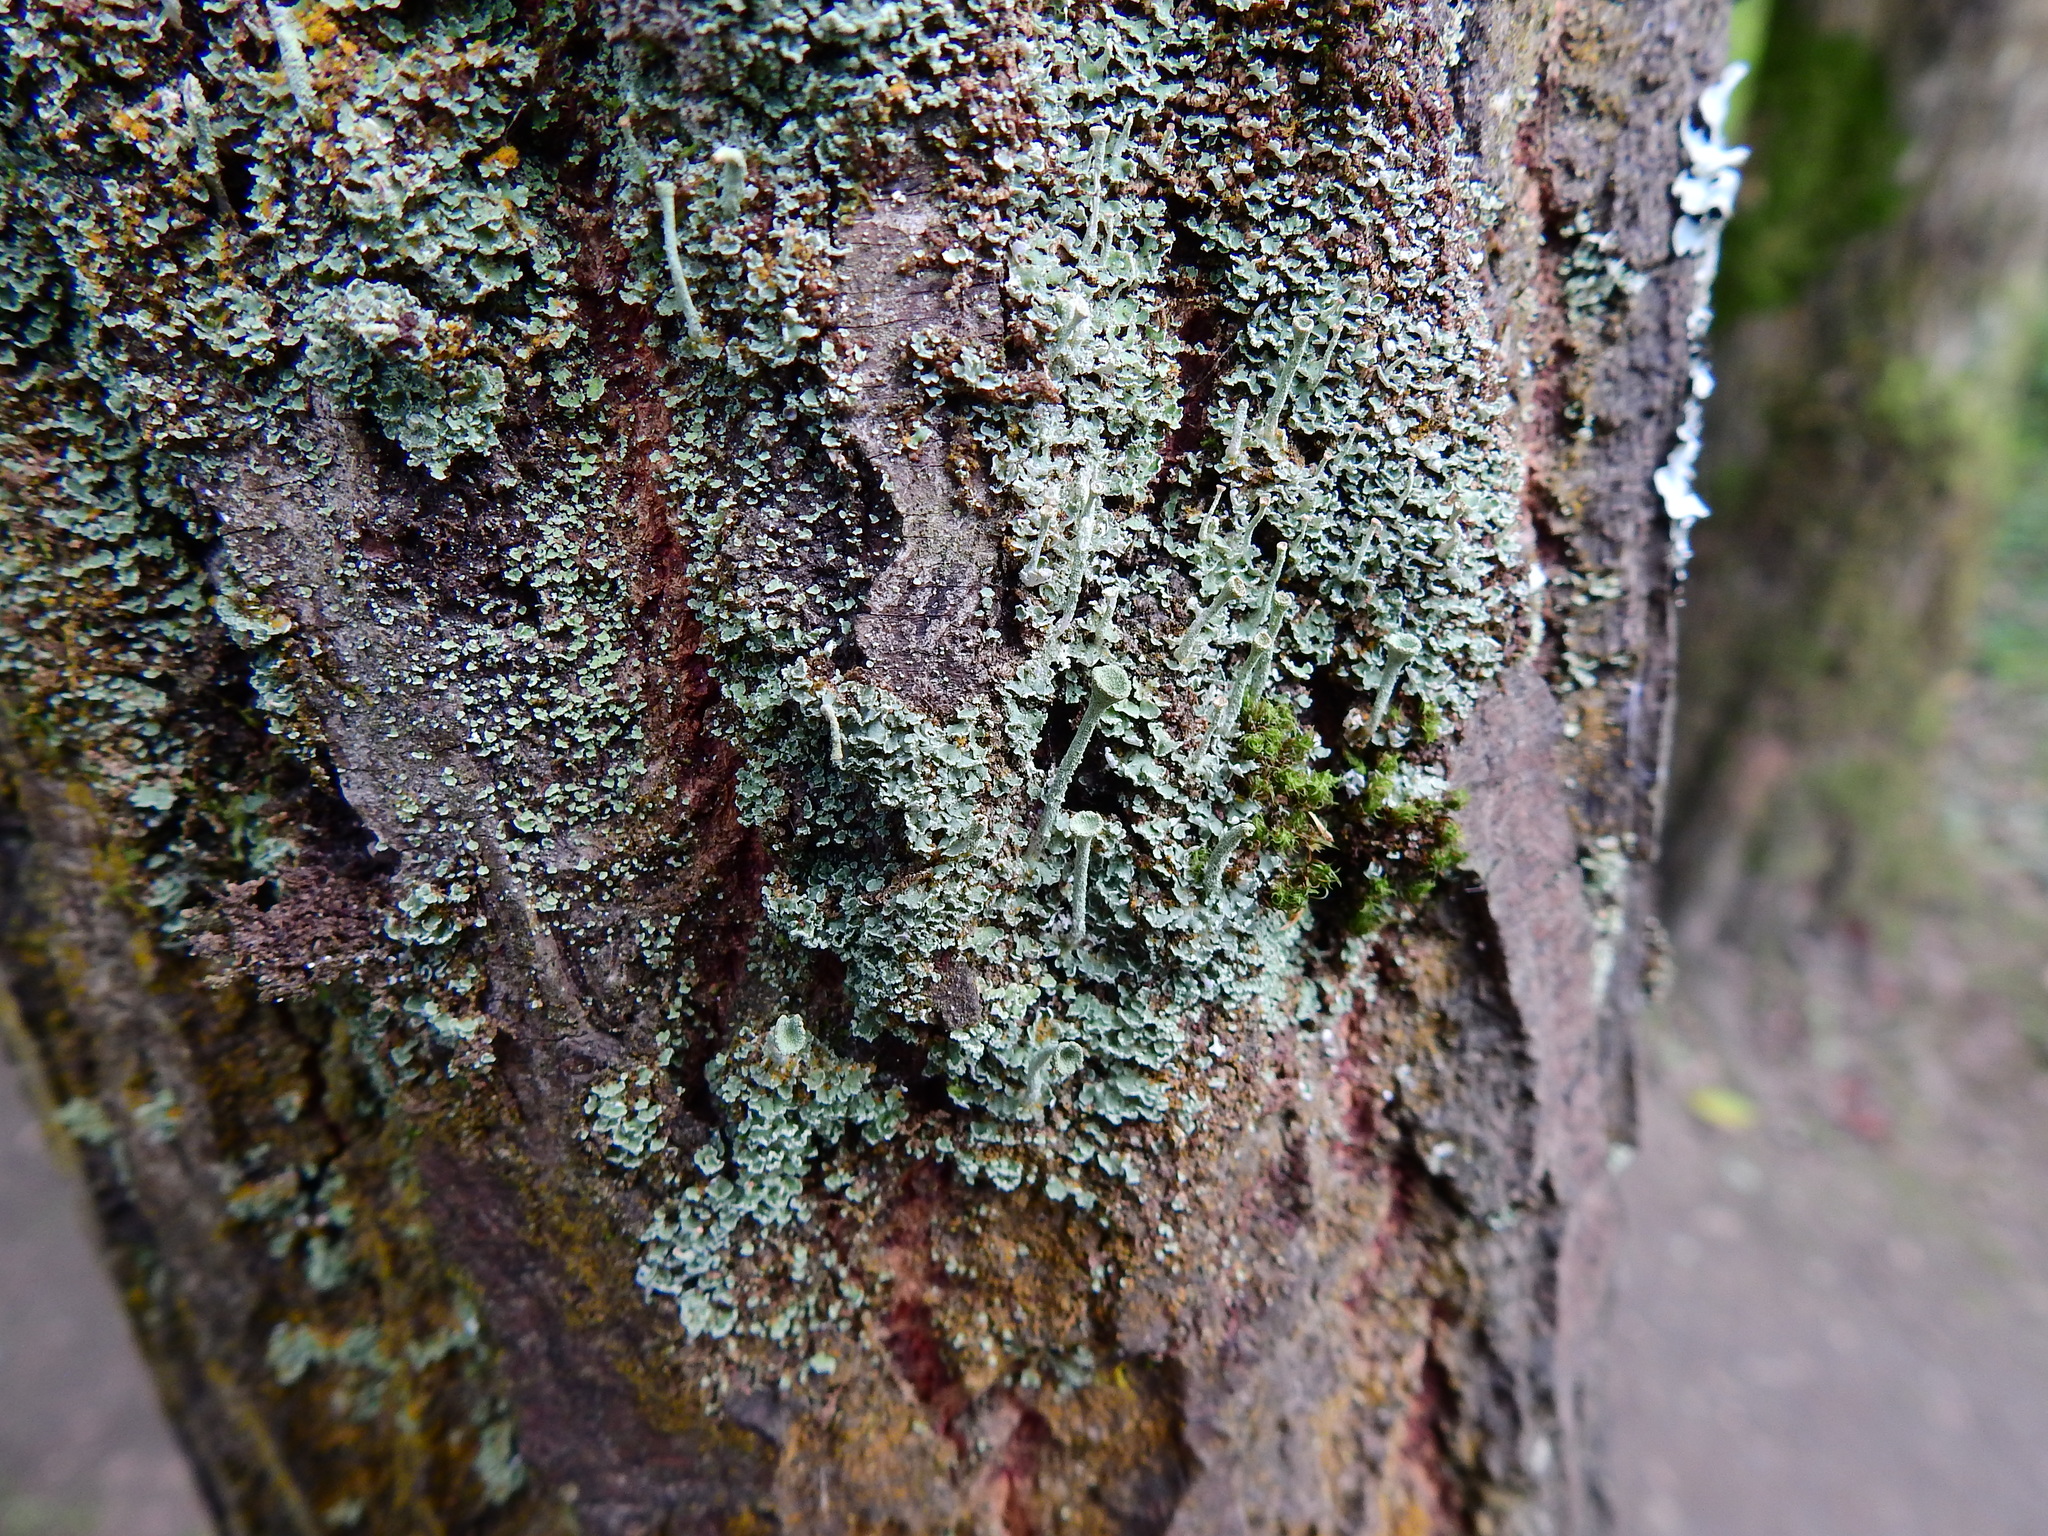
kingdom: Fungi
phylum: Ascomycota
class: Lecanoromycetes
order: Lecanorales
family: Cladoniaceae
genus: Cladonia
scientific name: Cladonia
